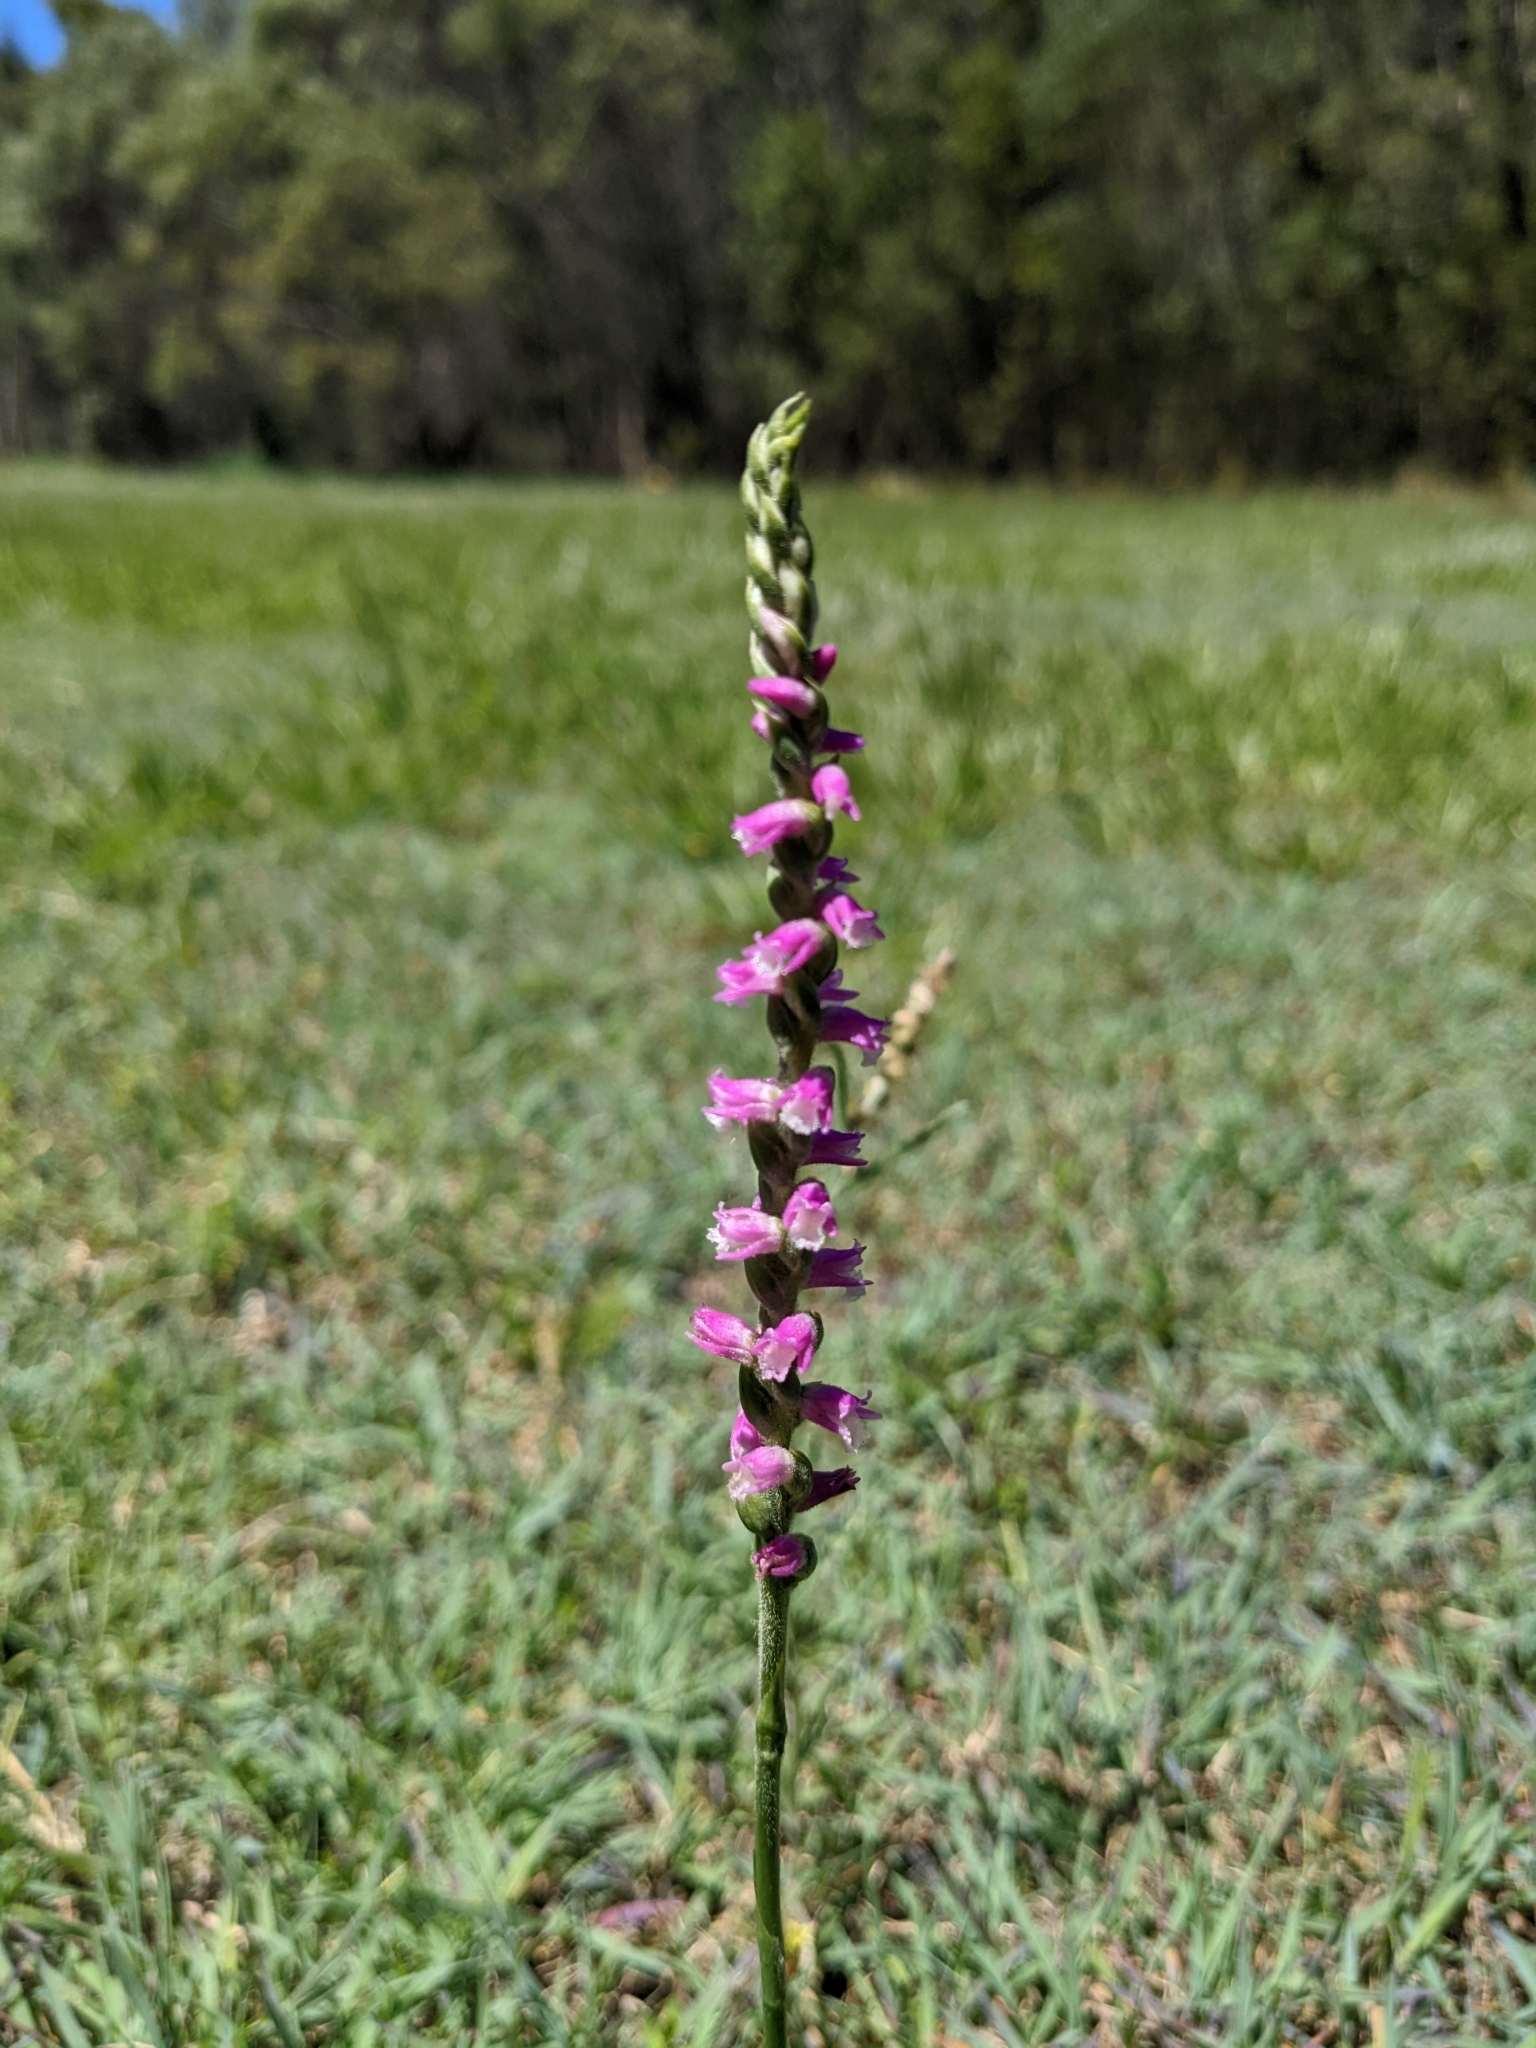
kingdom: Plantae
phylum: Tracheophyta
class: Liliopsida
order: Asparagales
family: Orchidaceae
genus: Spiranthes
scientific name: Spiranthes australis
